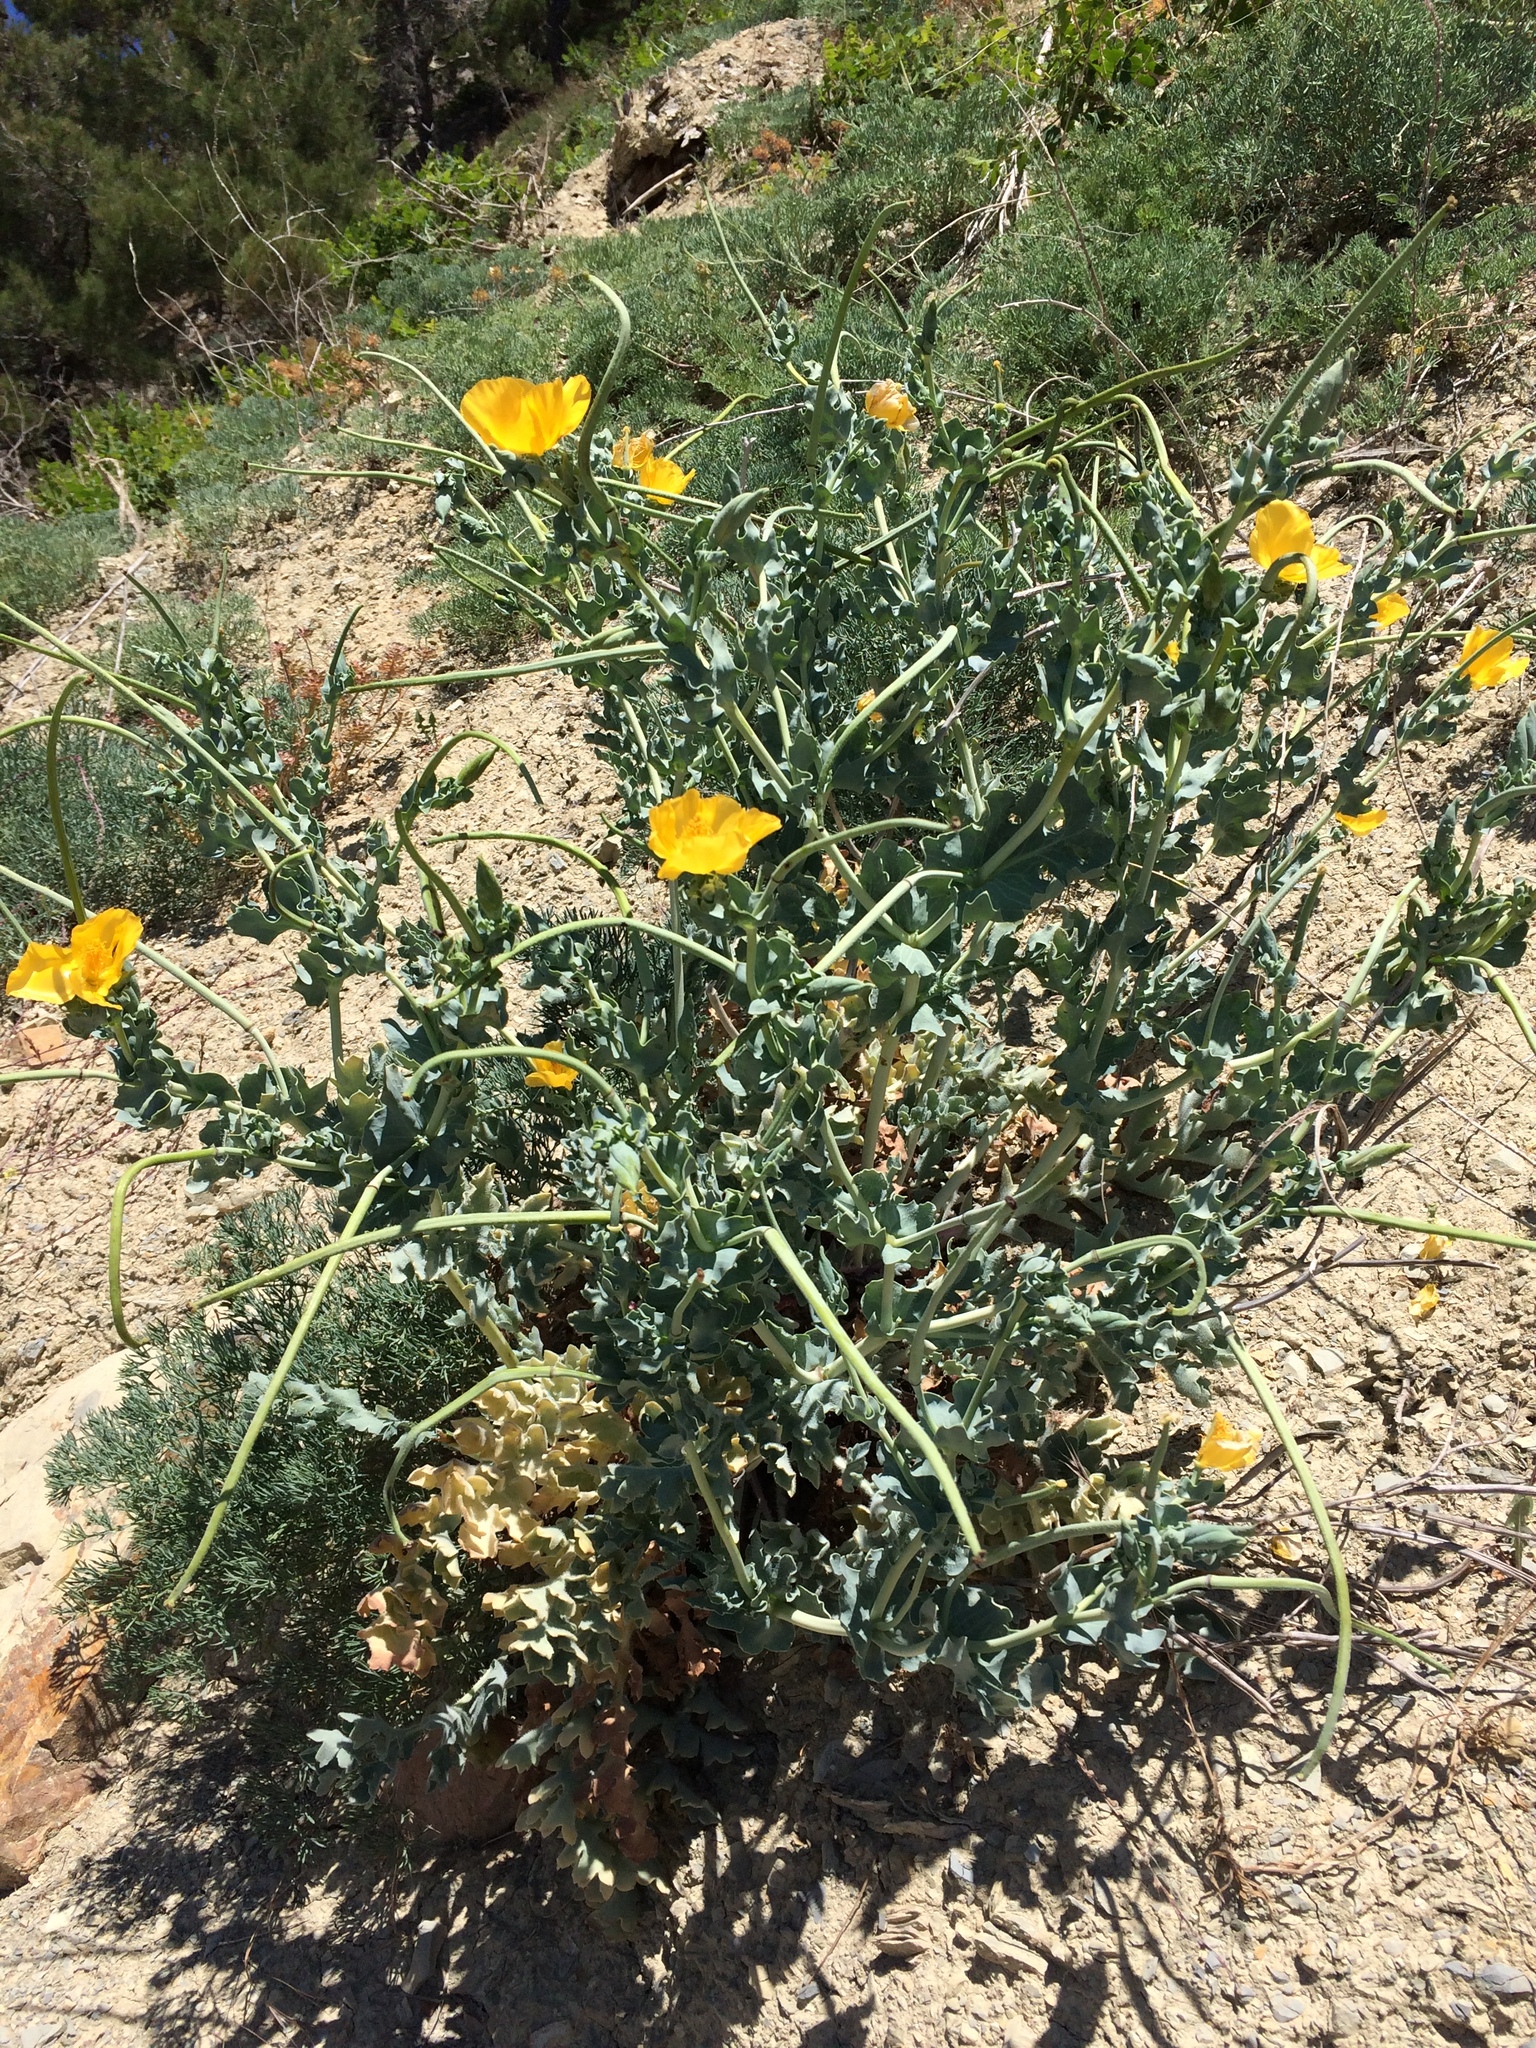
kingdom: Plantae
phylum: Tracheophyta
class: Magnoliopsida
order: Ranunculales
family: Papaveraceae
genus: Glaucium
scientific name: Glaucium flavum
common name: Yellow horned-poppy
